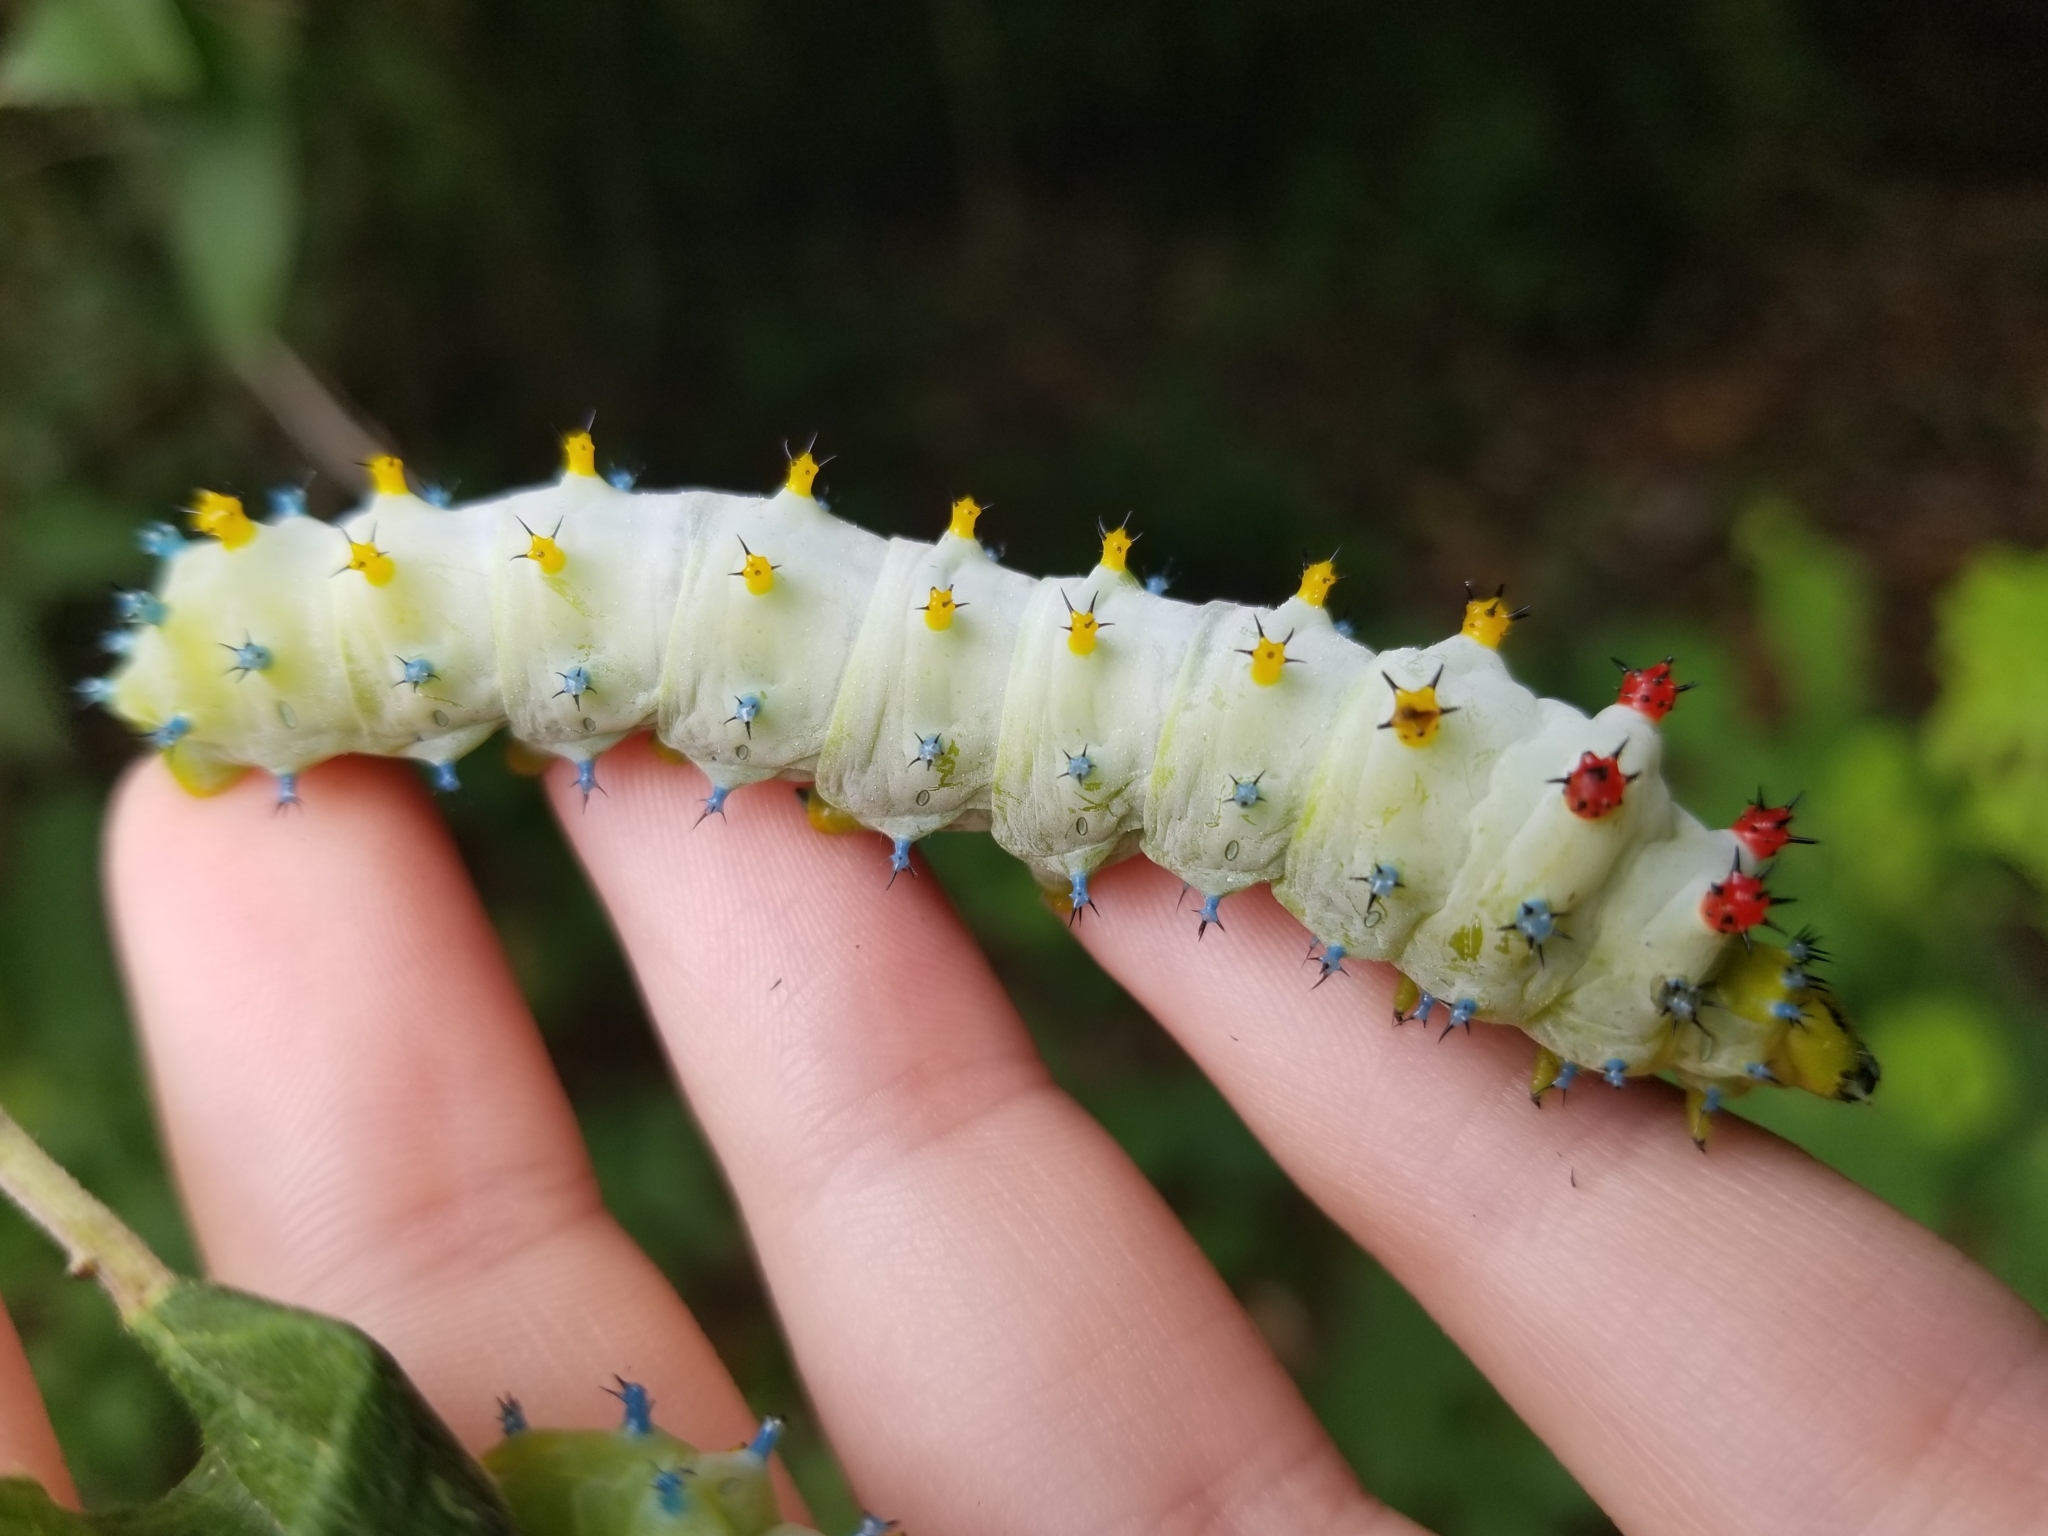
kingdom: Animalia
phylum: Arthropoda
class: Insecta
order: Lepidoptera
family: Saturniidae
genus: Hyalophora
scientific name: Hyalophora cecropia
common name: Cecropia silkmoth
